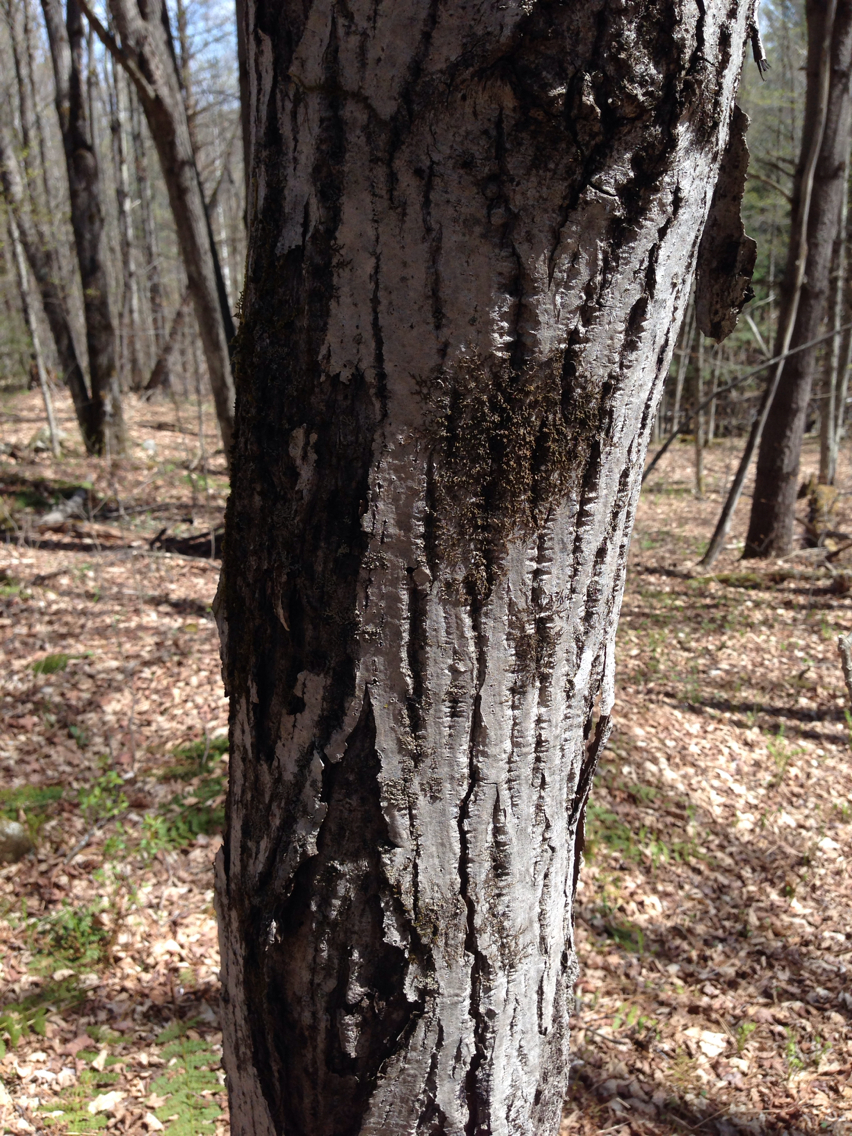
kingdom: Plantae
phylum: Tracheophyta
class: Magnoliopsida
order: Fagales
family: Juglandaceae
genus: Juglans
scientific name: Juglans cinerea
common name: Butternut
